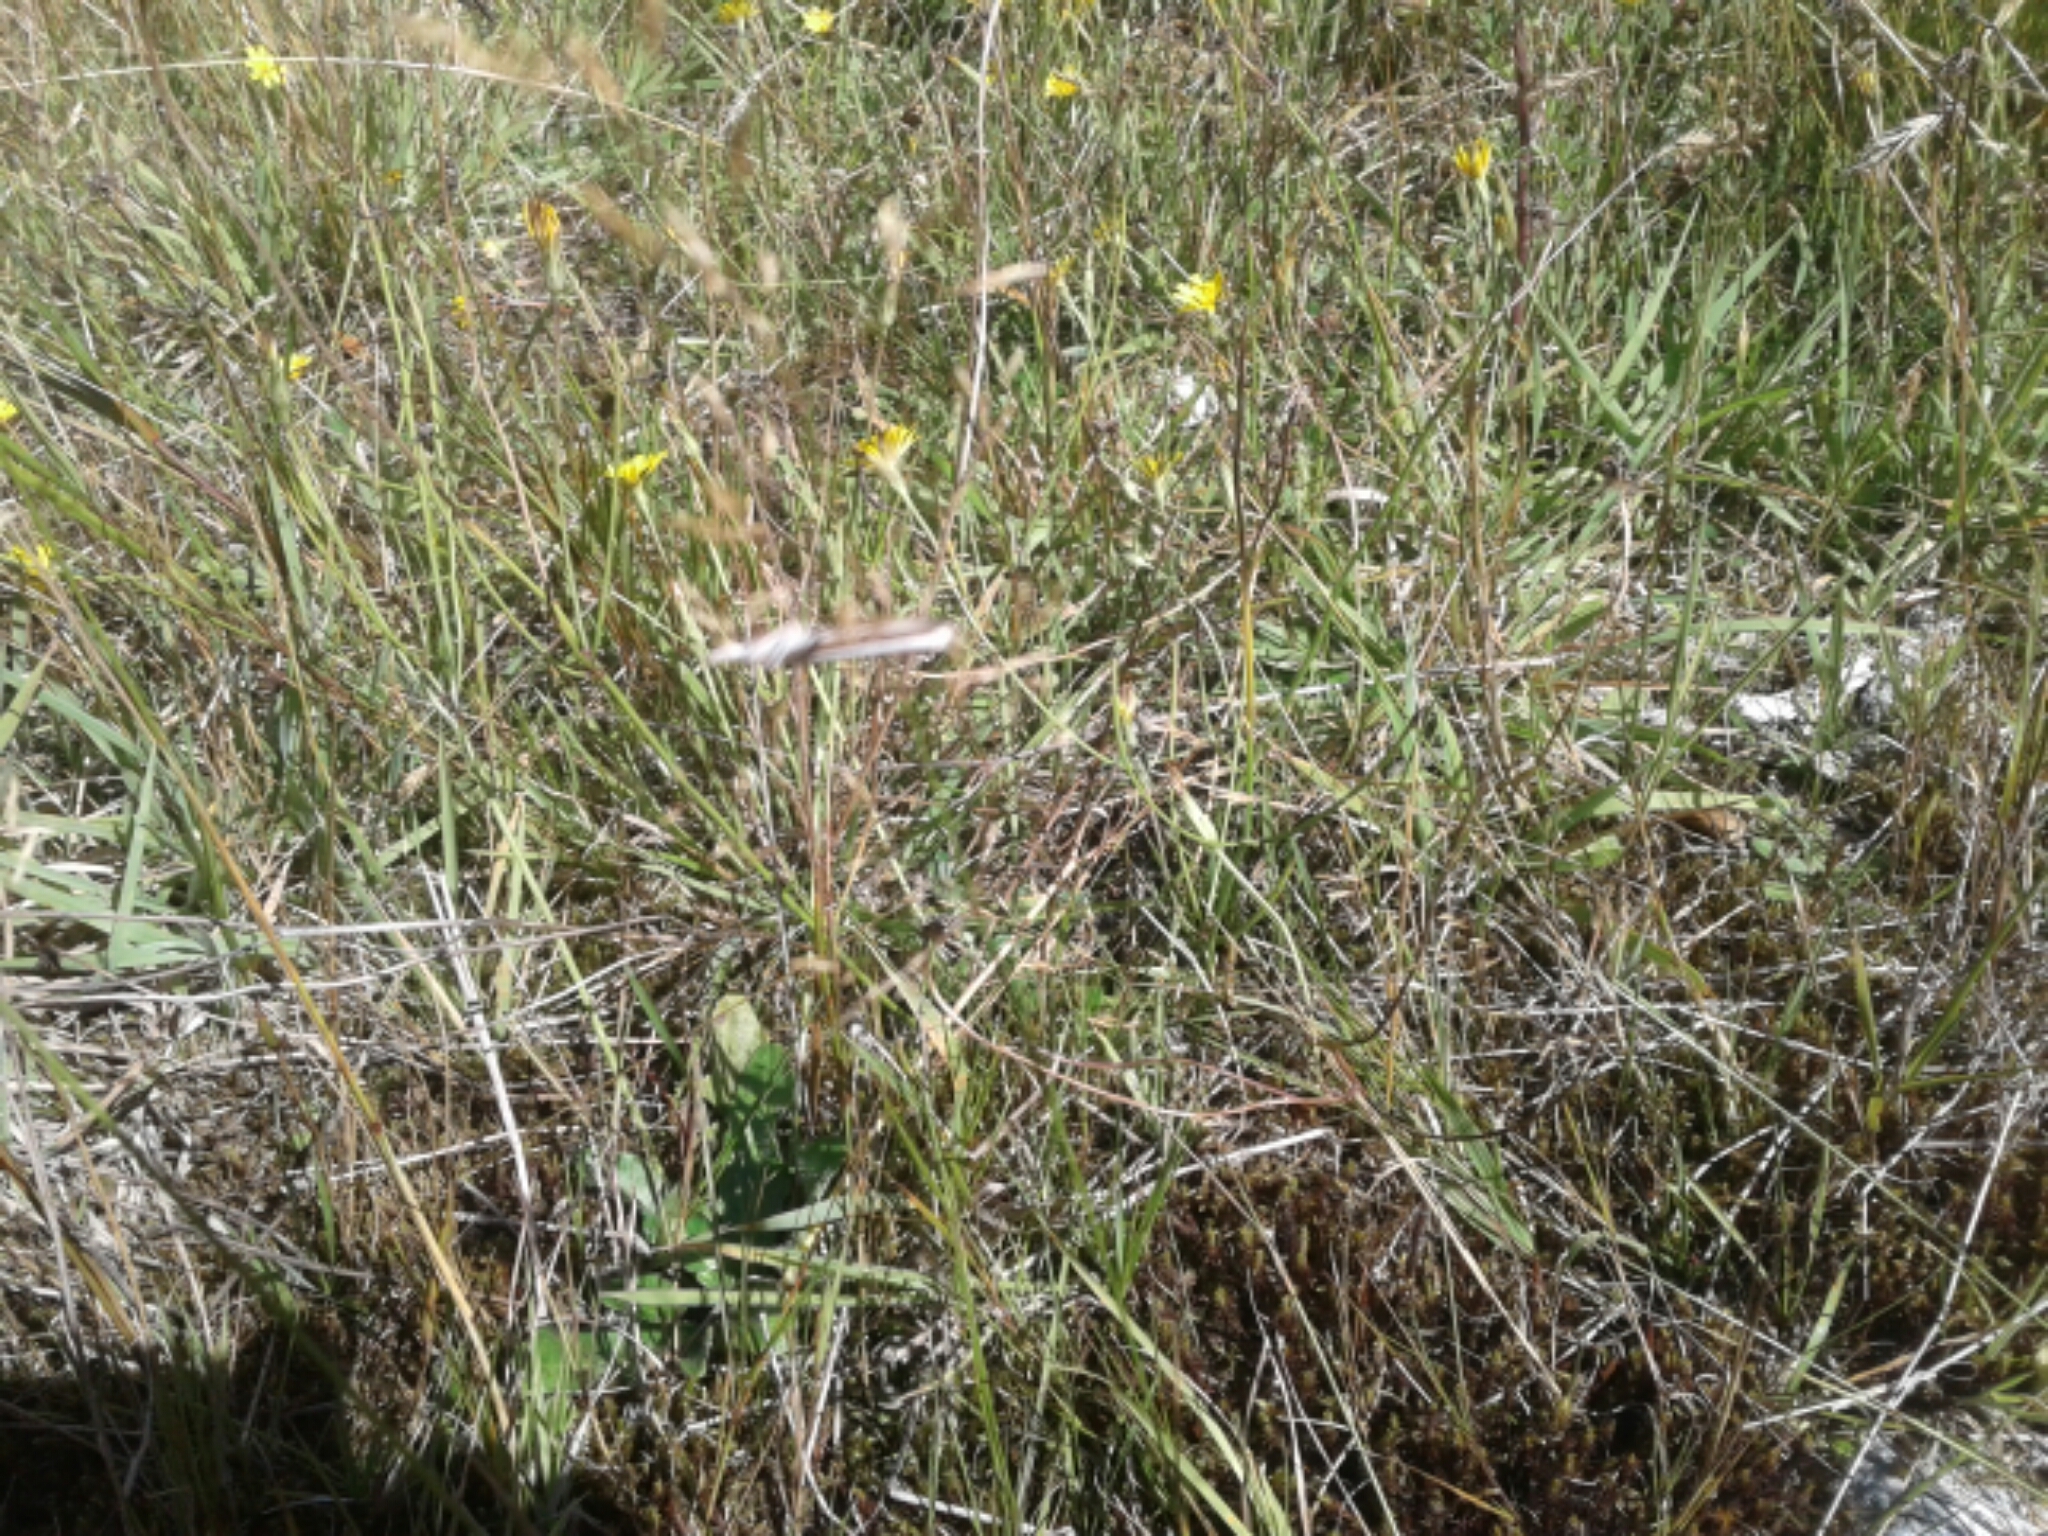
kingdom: Plantae
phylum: Tracheophyta
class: Magnoliopsida
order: Fabales
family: Fabaceae
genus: Lupinus
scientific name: Lupinus arboreus
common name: Yellow bush lupine
